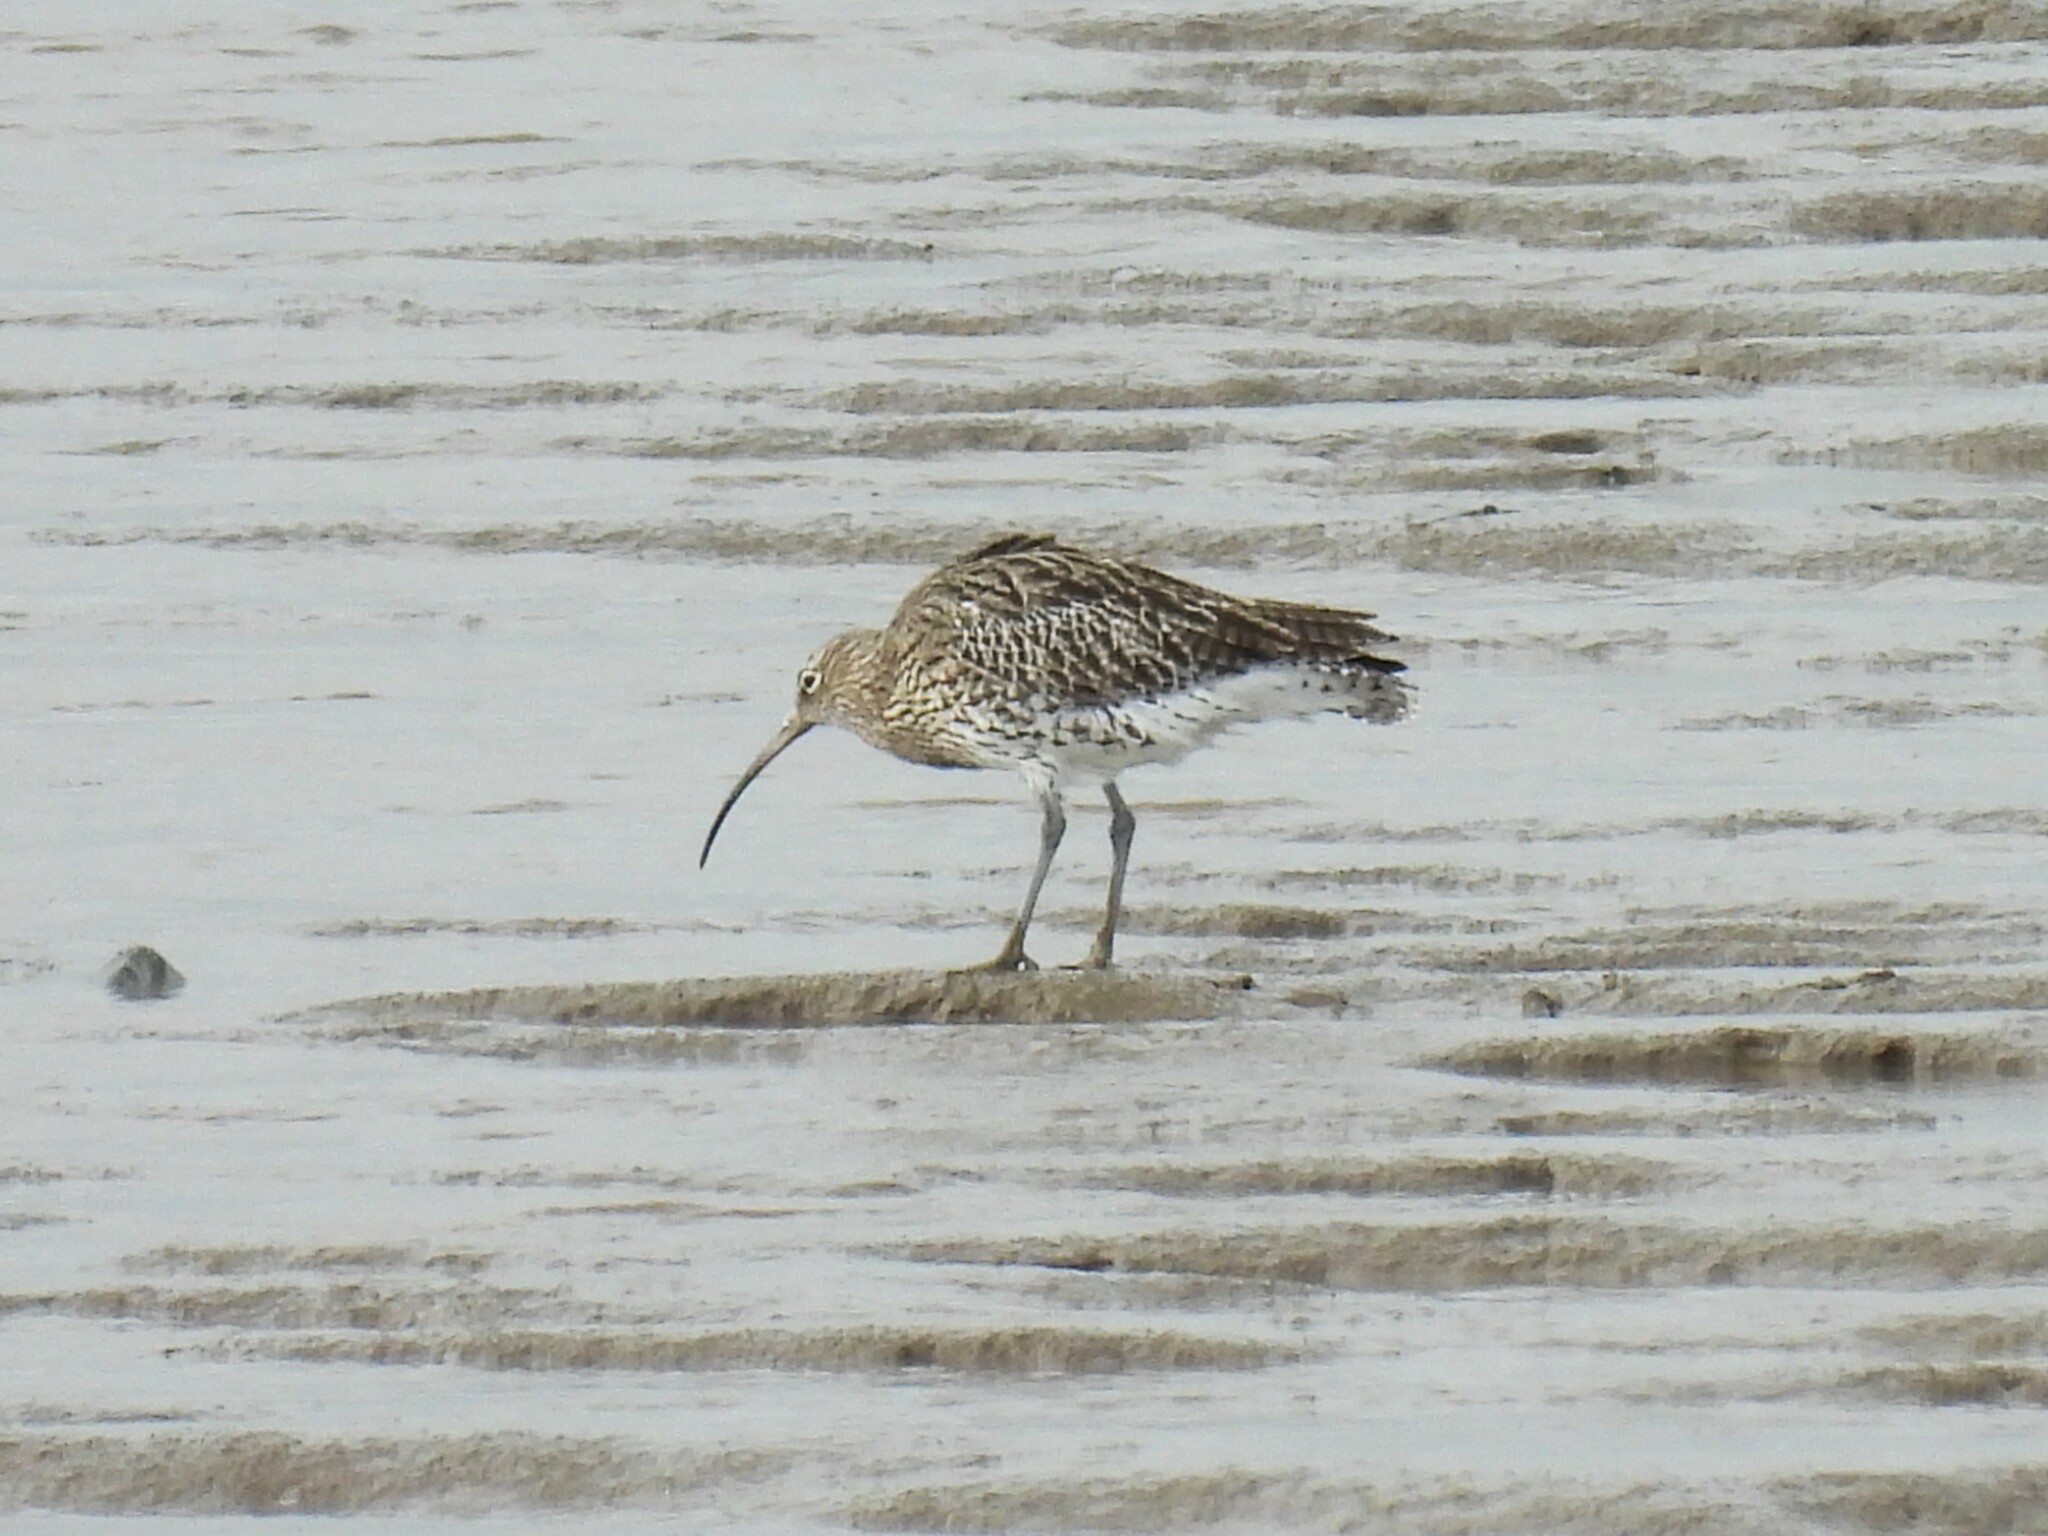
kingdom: Animalia
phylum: Chordata
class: Aves
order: Charadriiformes
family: Scolopacidae
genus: Numenius
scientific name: Numenius arquata
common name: Eurasian curlew
